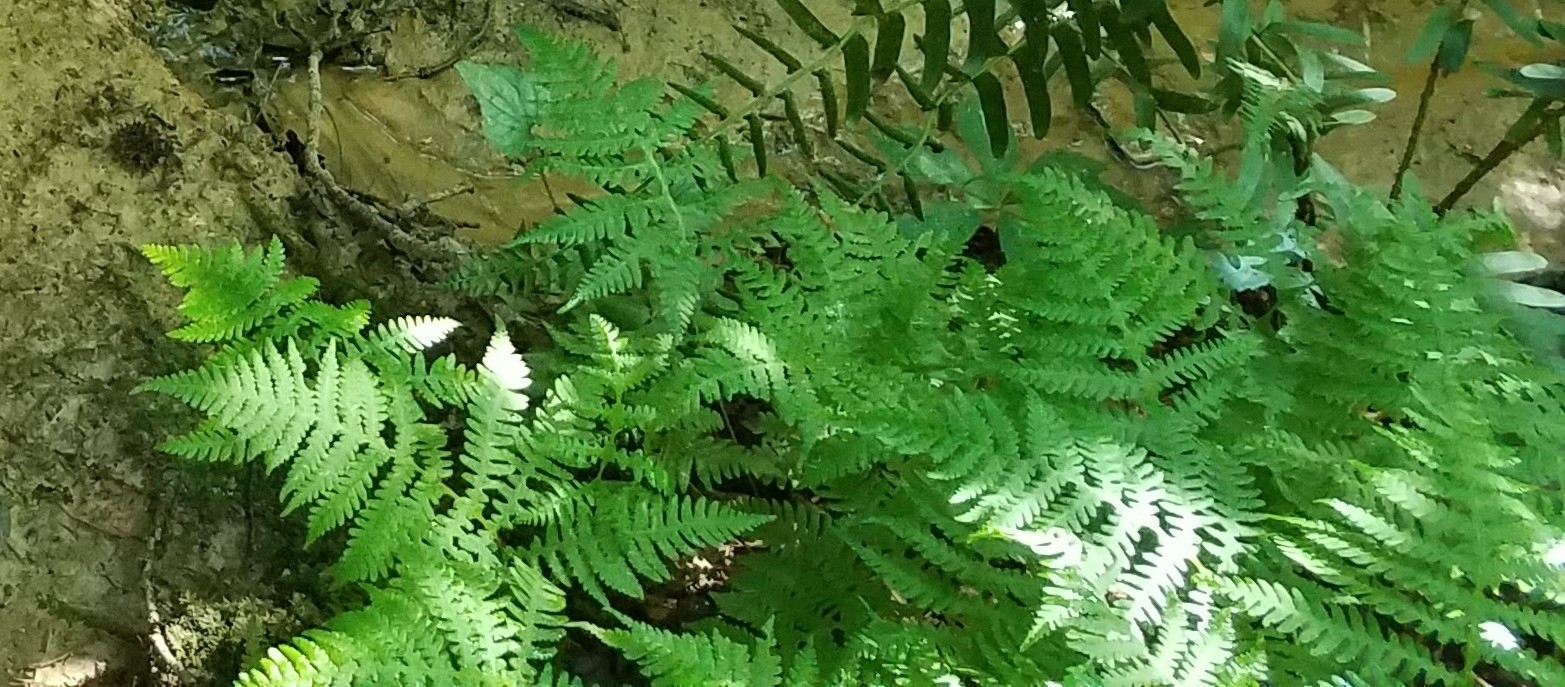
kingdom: Plantae
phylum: Tracheophyta
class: Polypodiopsida
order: Polypodiales
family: Thelypteridaceae
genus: Phegopteris
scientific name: Phegopteris hexagonoptera
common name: Broad beech fern
